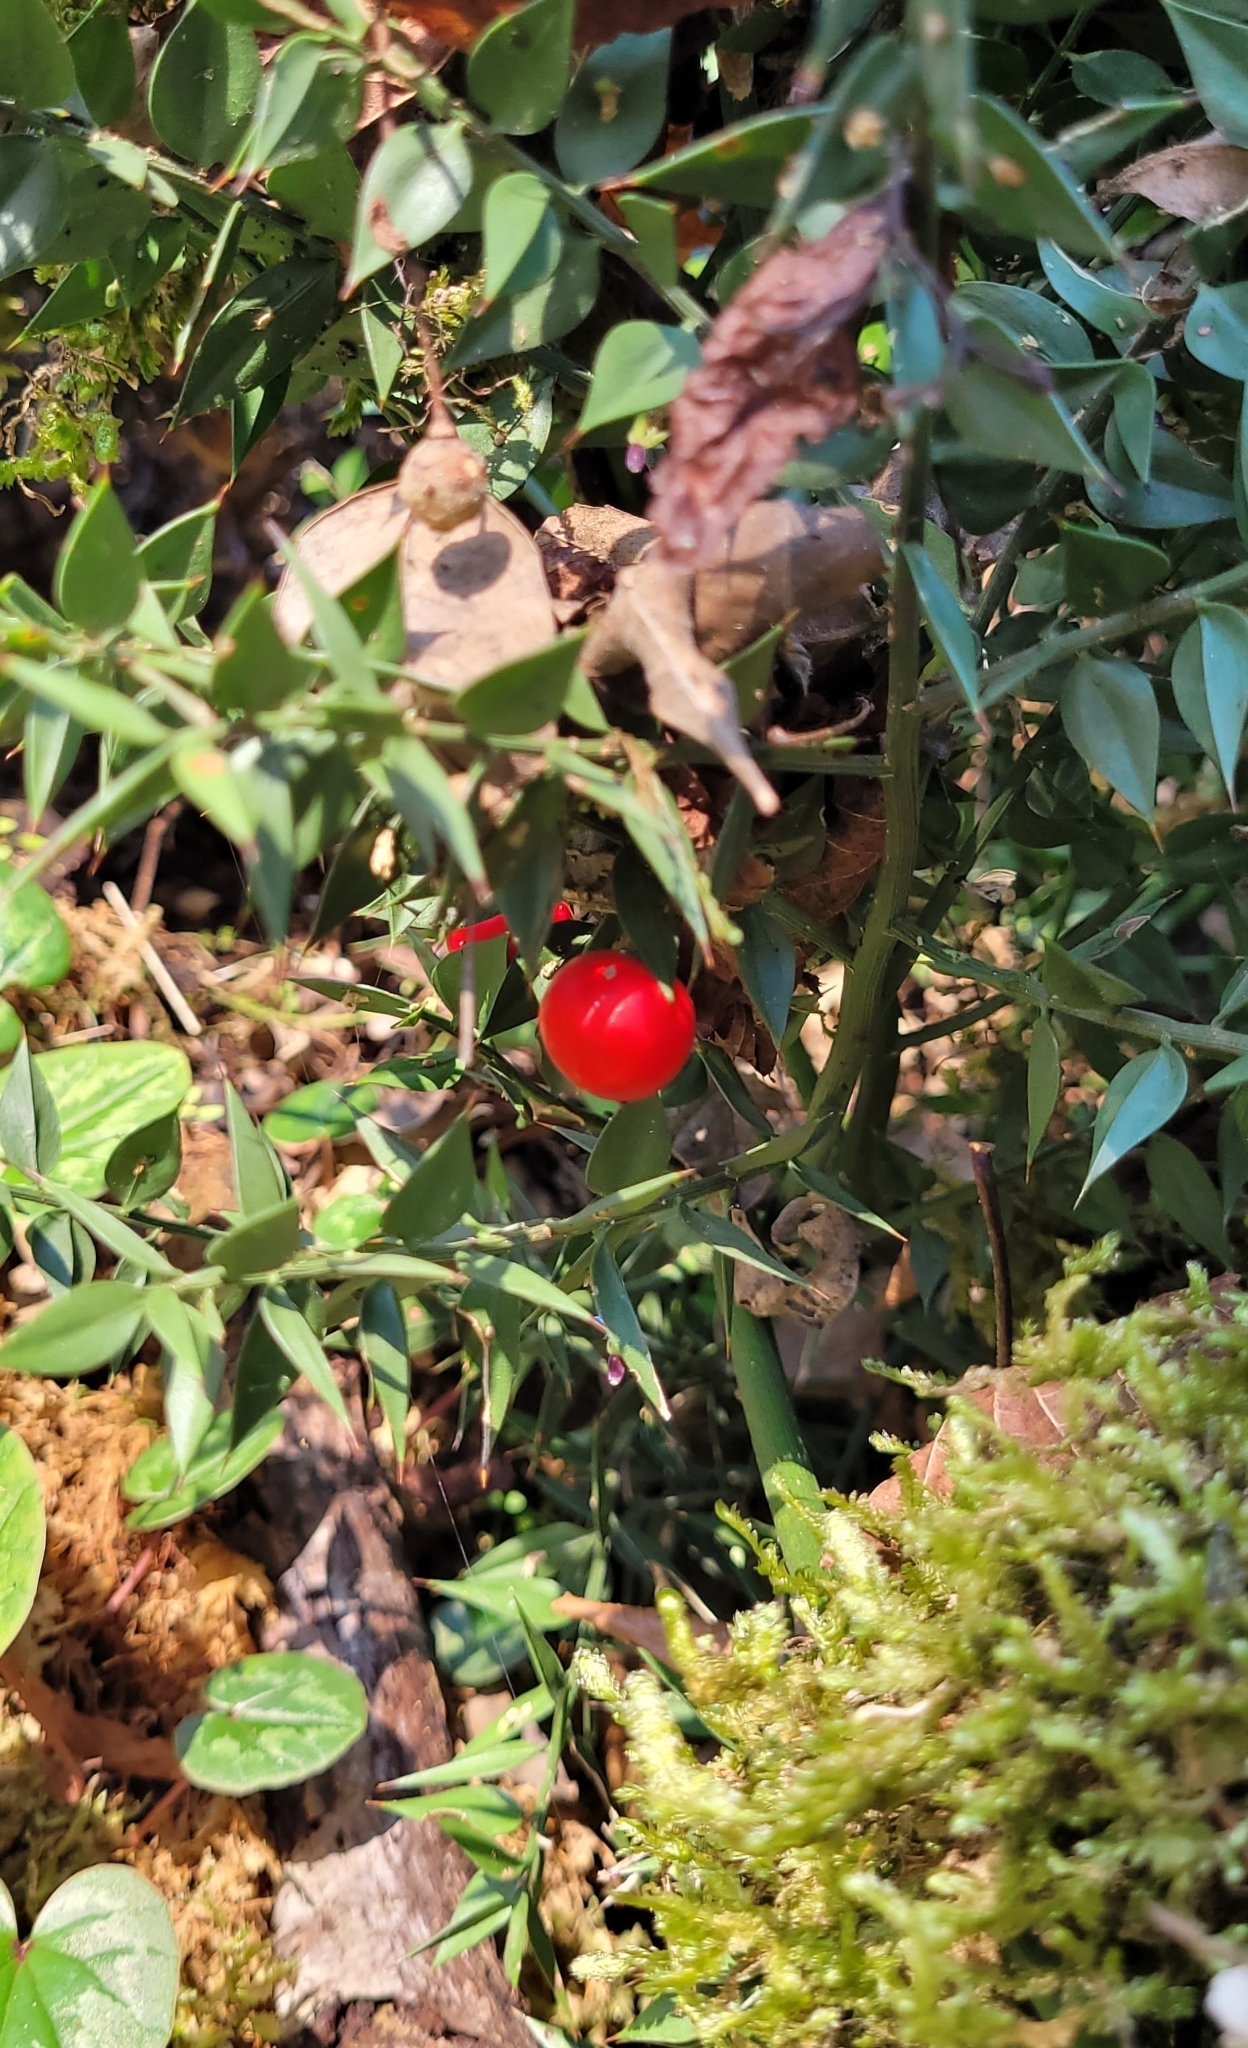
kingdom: Plantae
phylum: Tracheophyta
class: Liliopsida
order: Asparagales
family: Asparagaceae
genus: Ruscus
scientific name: Ruscus aculeatus
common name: Butcher's-broom
